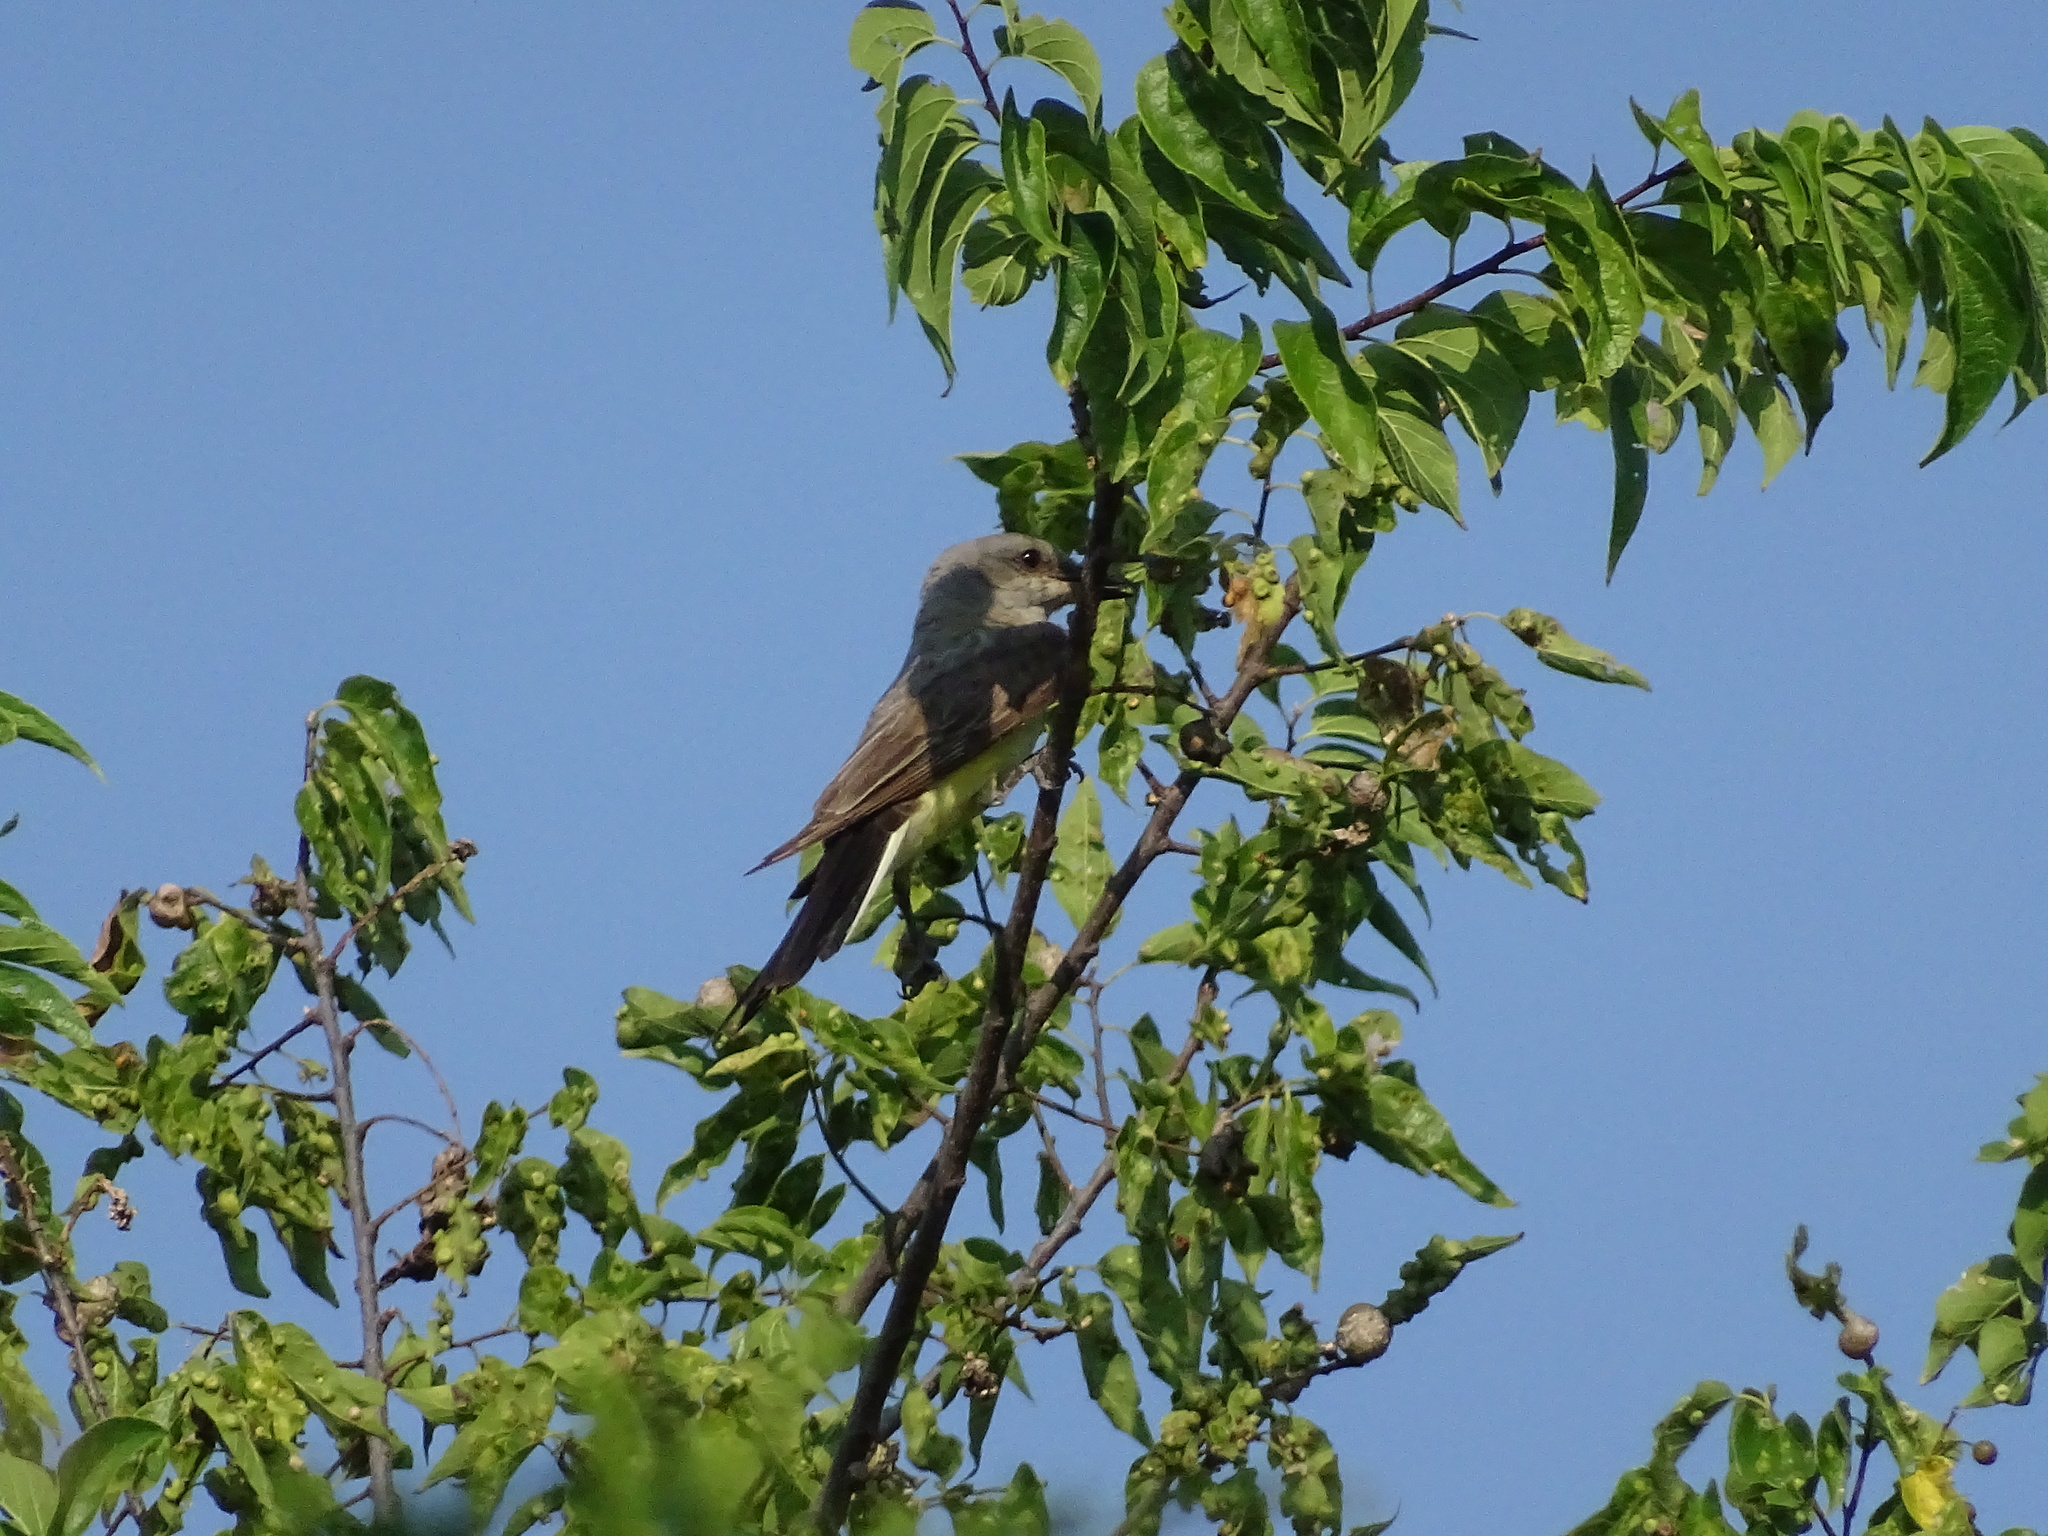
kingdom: Animalia
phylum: Chordata
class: Aves
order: Passeriformes
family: Tyrannidae
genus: Tyrannus
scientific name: Tyrannus verticalis
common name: Western kingbird
